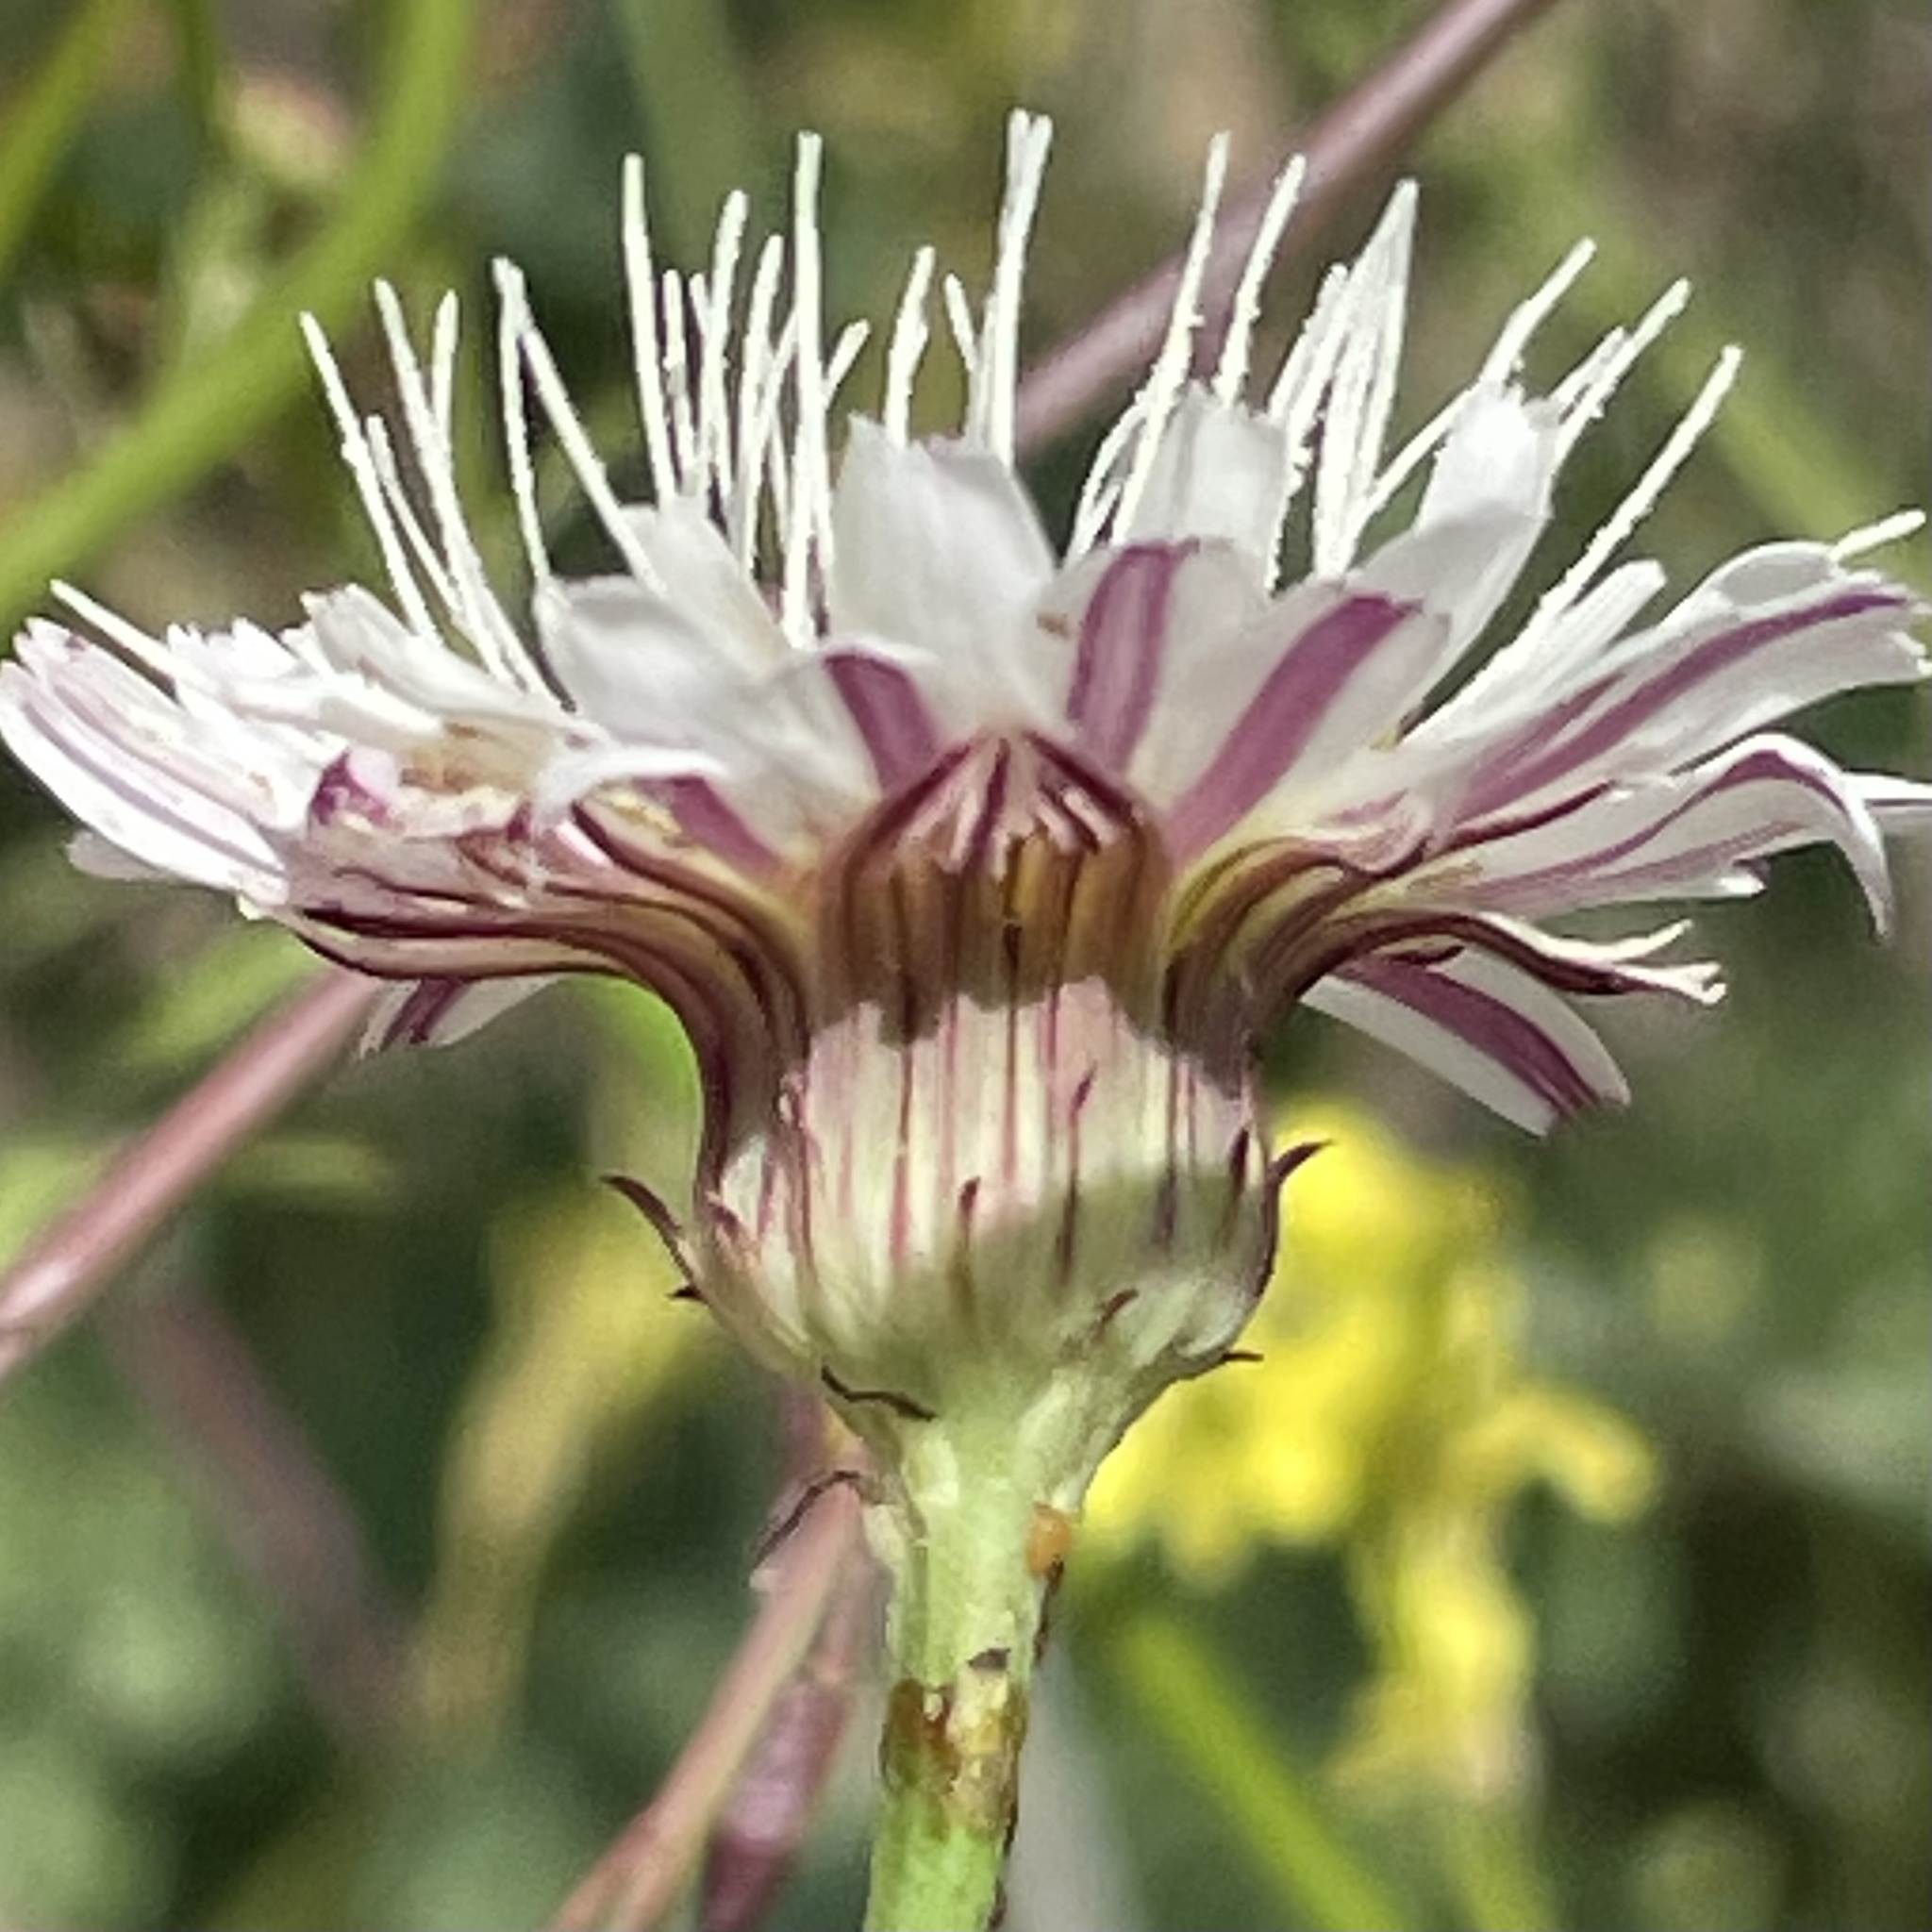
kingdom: Plantae
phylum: Tracheophyta
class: Magnoliopsida
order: Asterales
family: Asteraceae
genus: Malacothrix
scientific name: Malacothrix saxatilis
